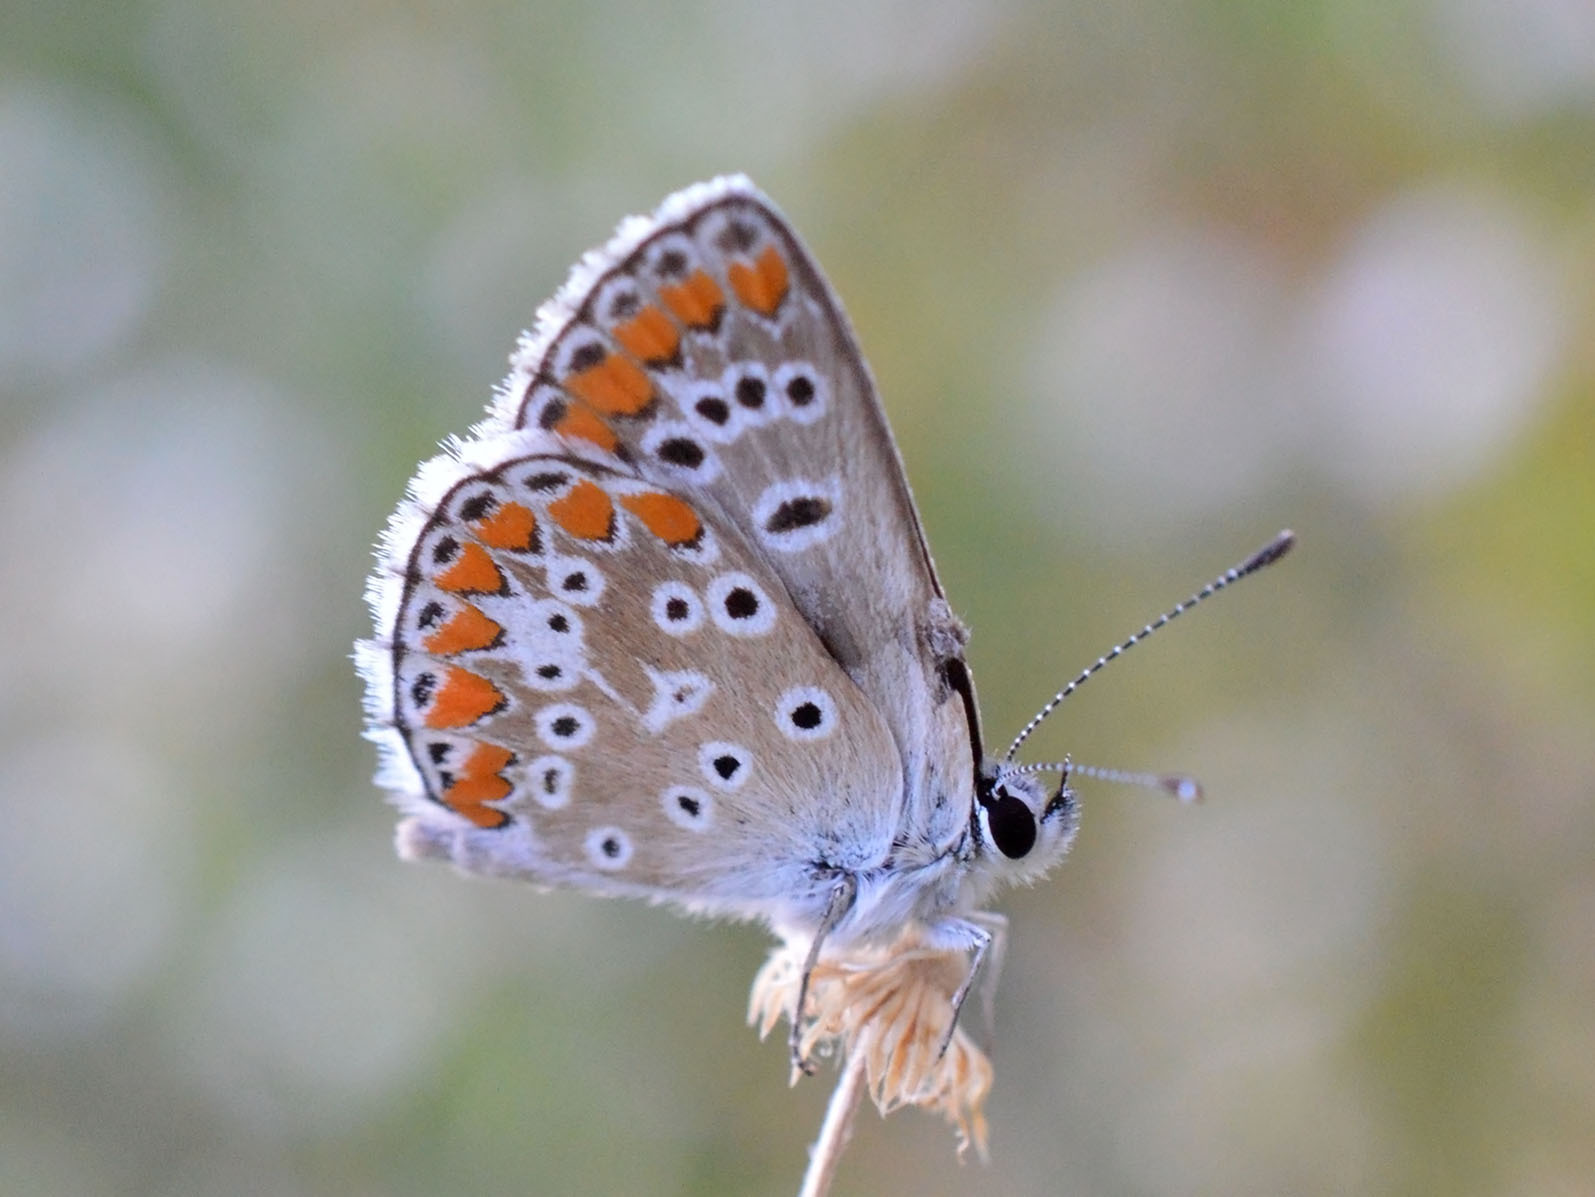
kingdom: Animalia
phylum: Arthropoda
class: Insecta
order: Lepidoptera
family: Lycaenidae
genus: Aricia
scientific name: Aricia agestis
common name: Brown argus
